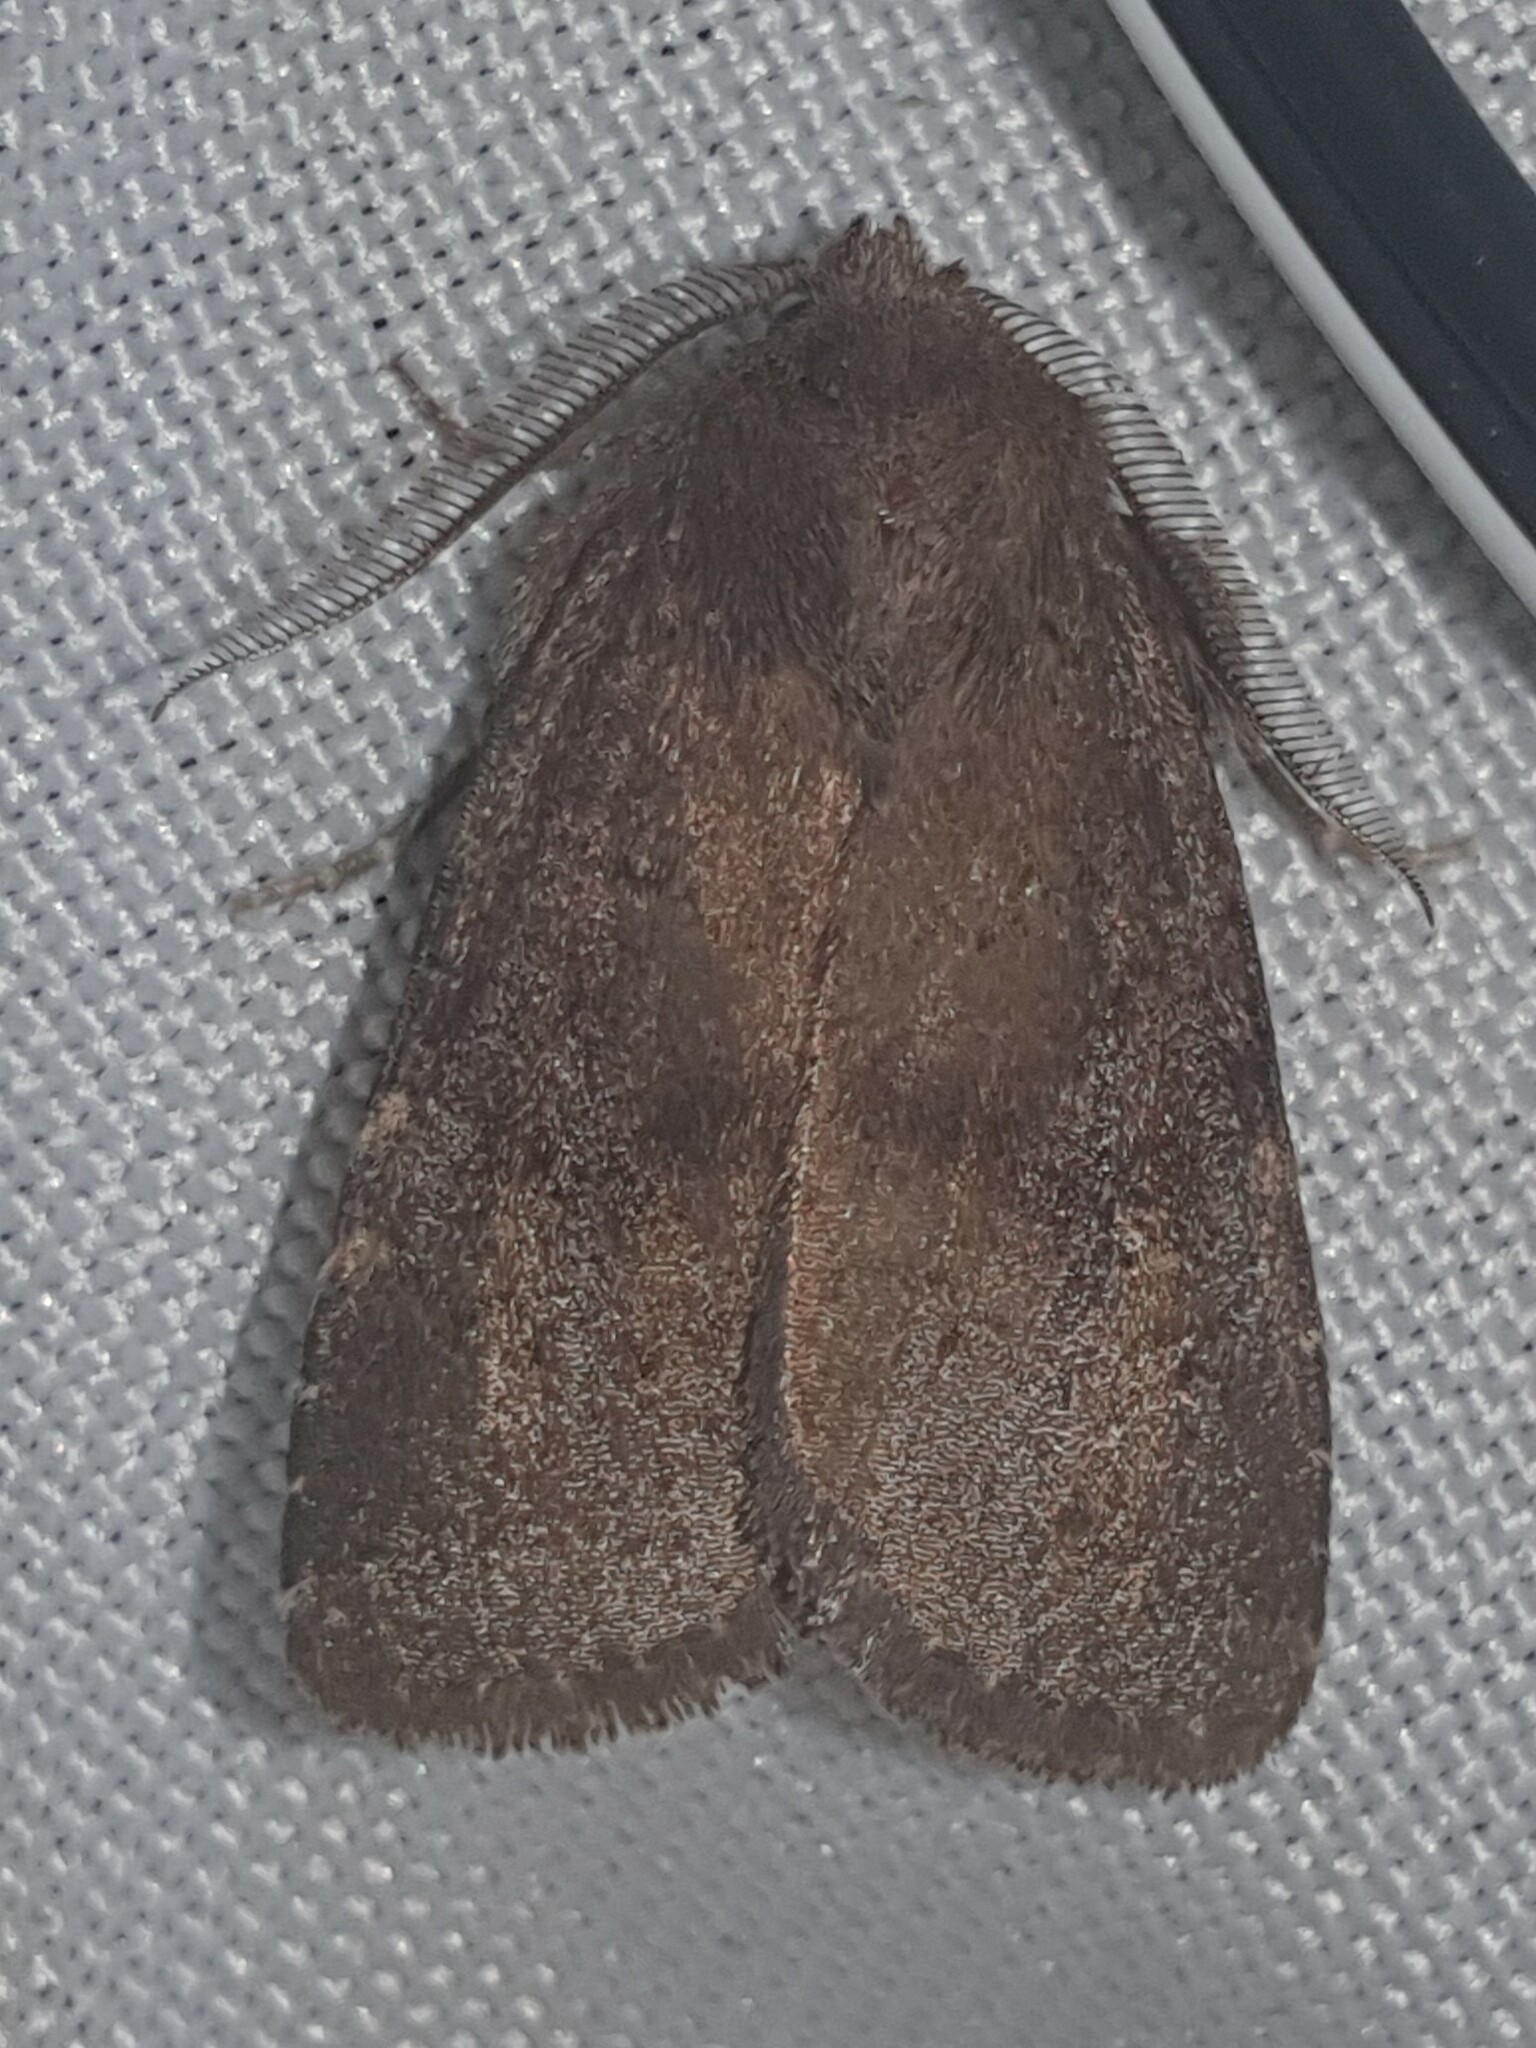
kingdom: Animalia
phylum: Arthropoda
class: Insecta
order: Lepidoptera
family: Noctuidae
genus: Charanyca
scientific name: Charanyca ferruginea
